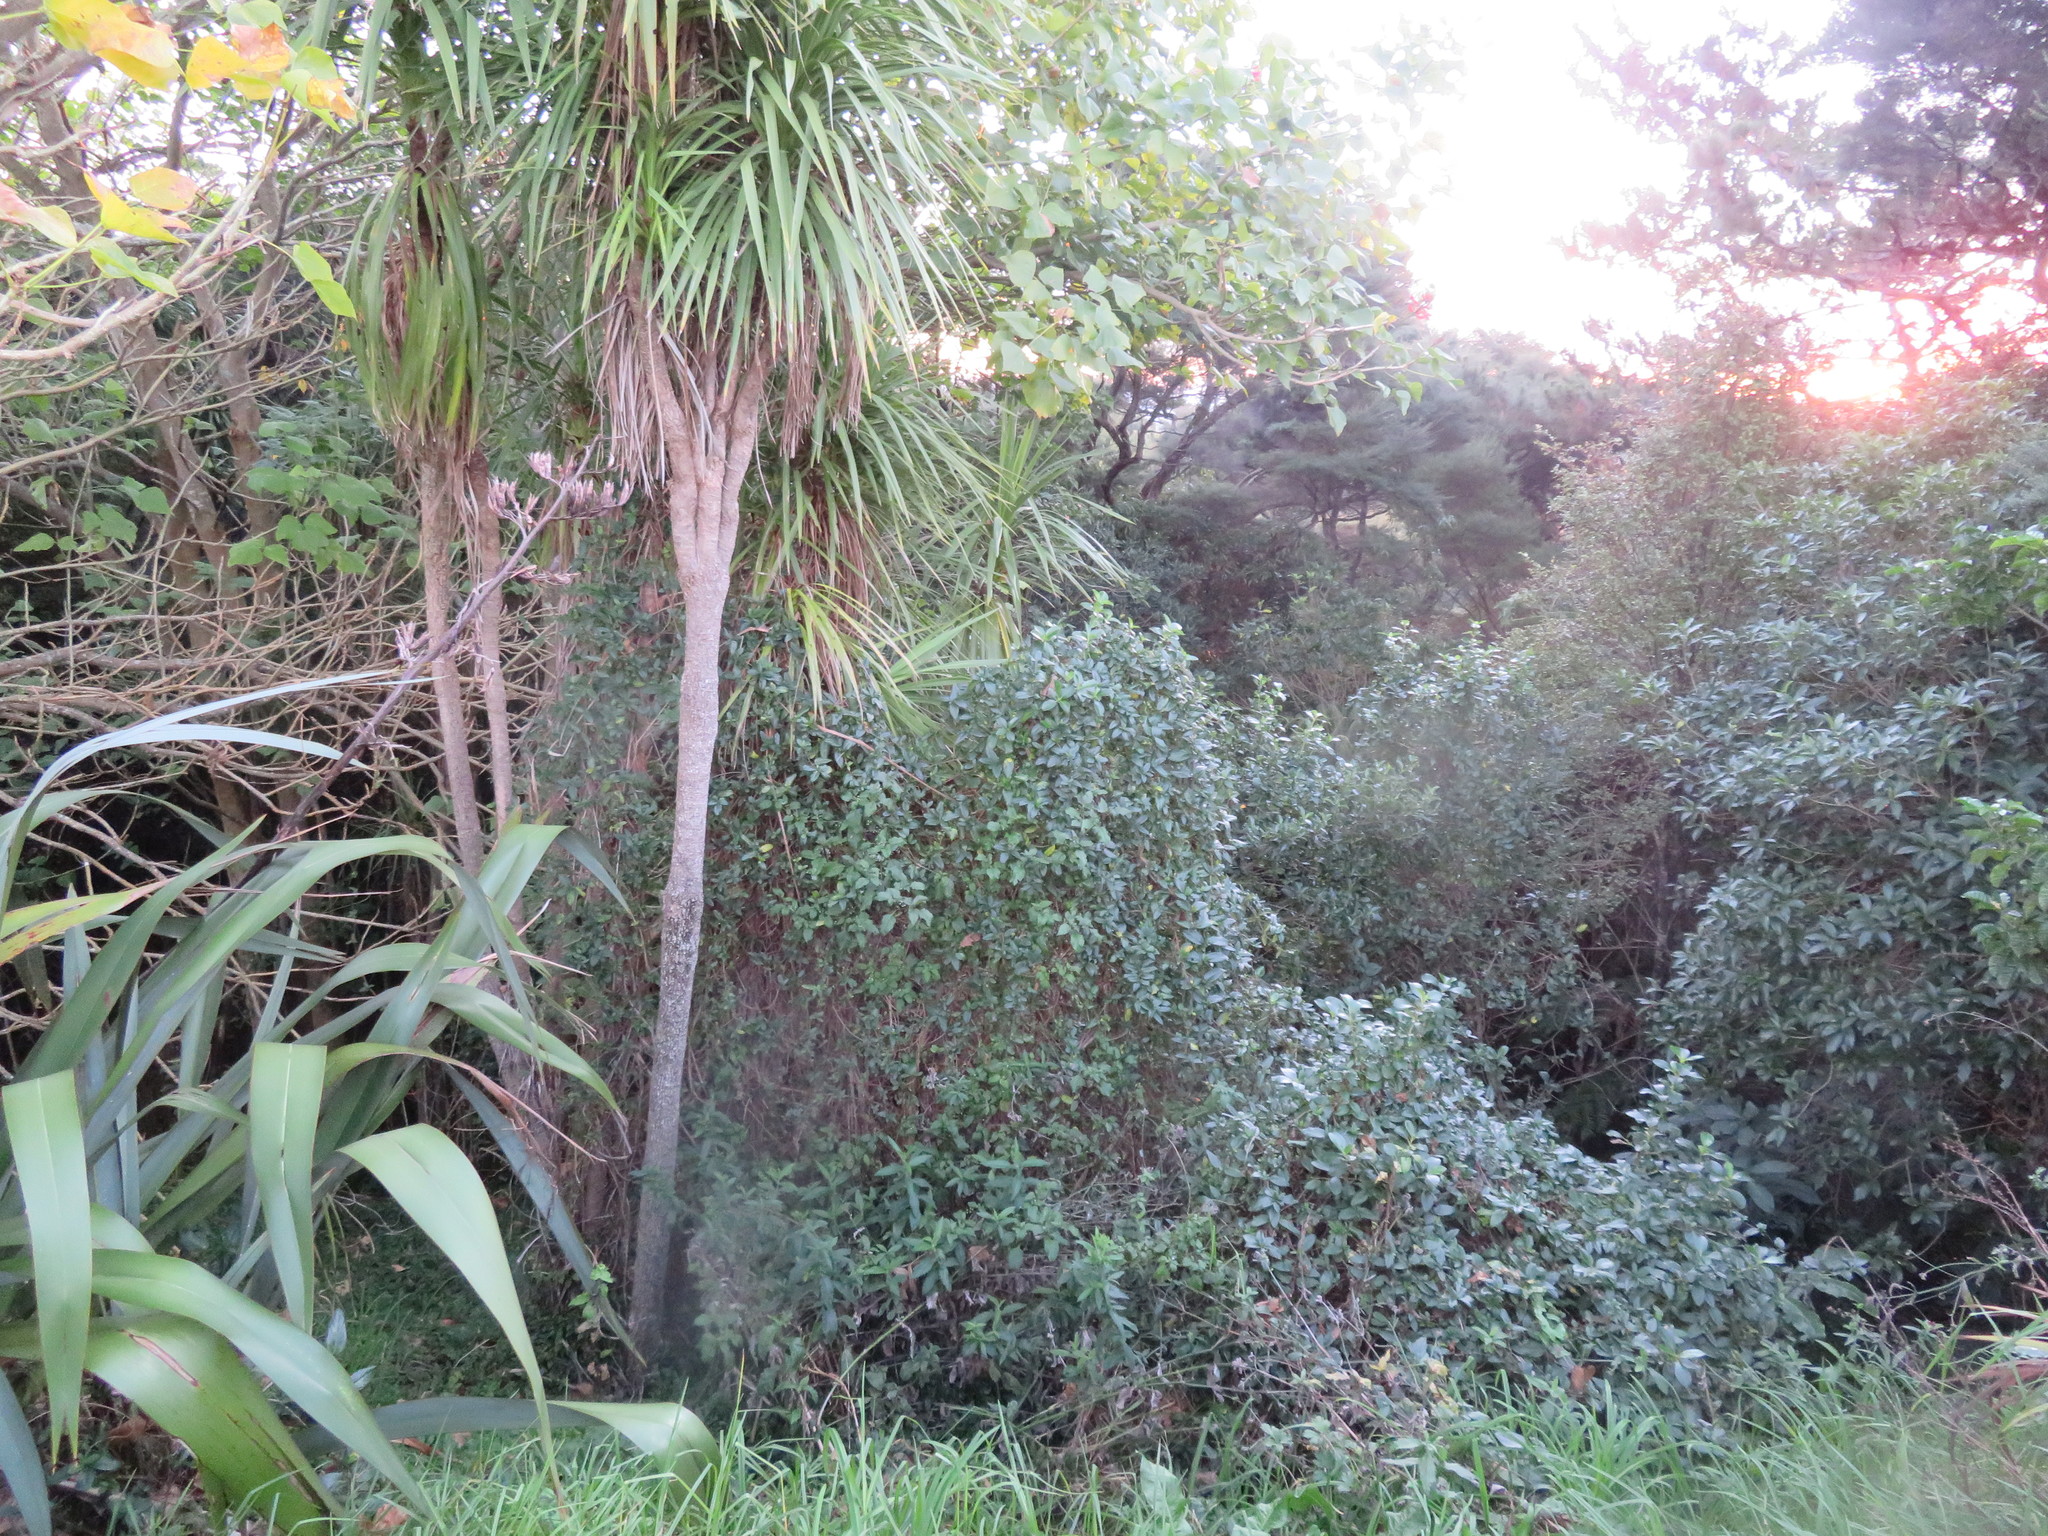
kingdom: Plantae
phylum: Tracheophyta
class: Liliopsida
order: Asparagales
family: Asparagaceae
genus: Cordyline
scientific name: Cordyline australis
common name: Cabbage-palm
